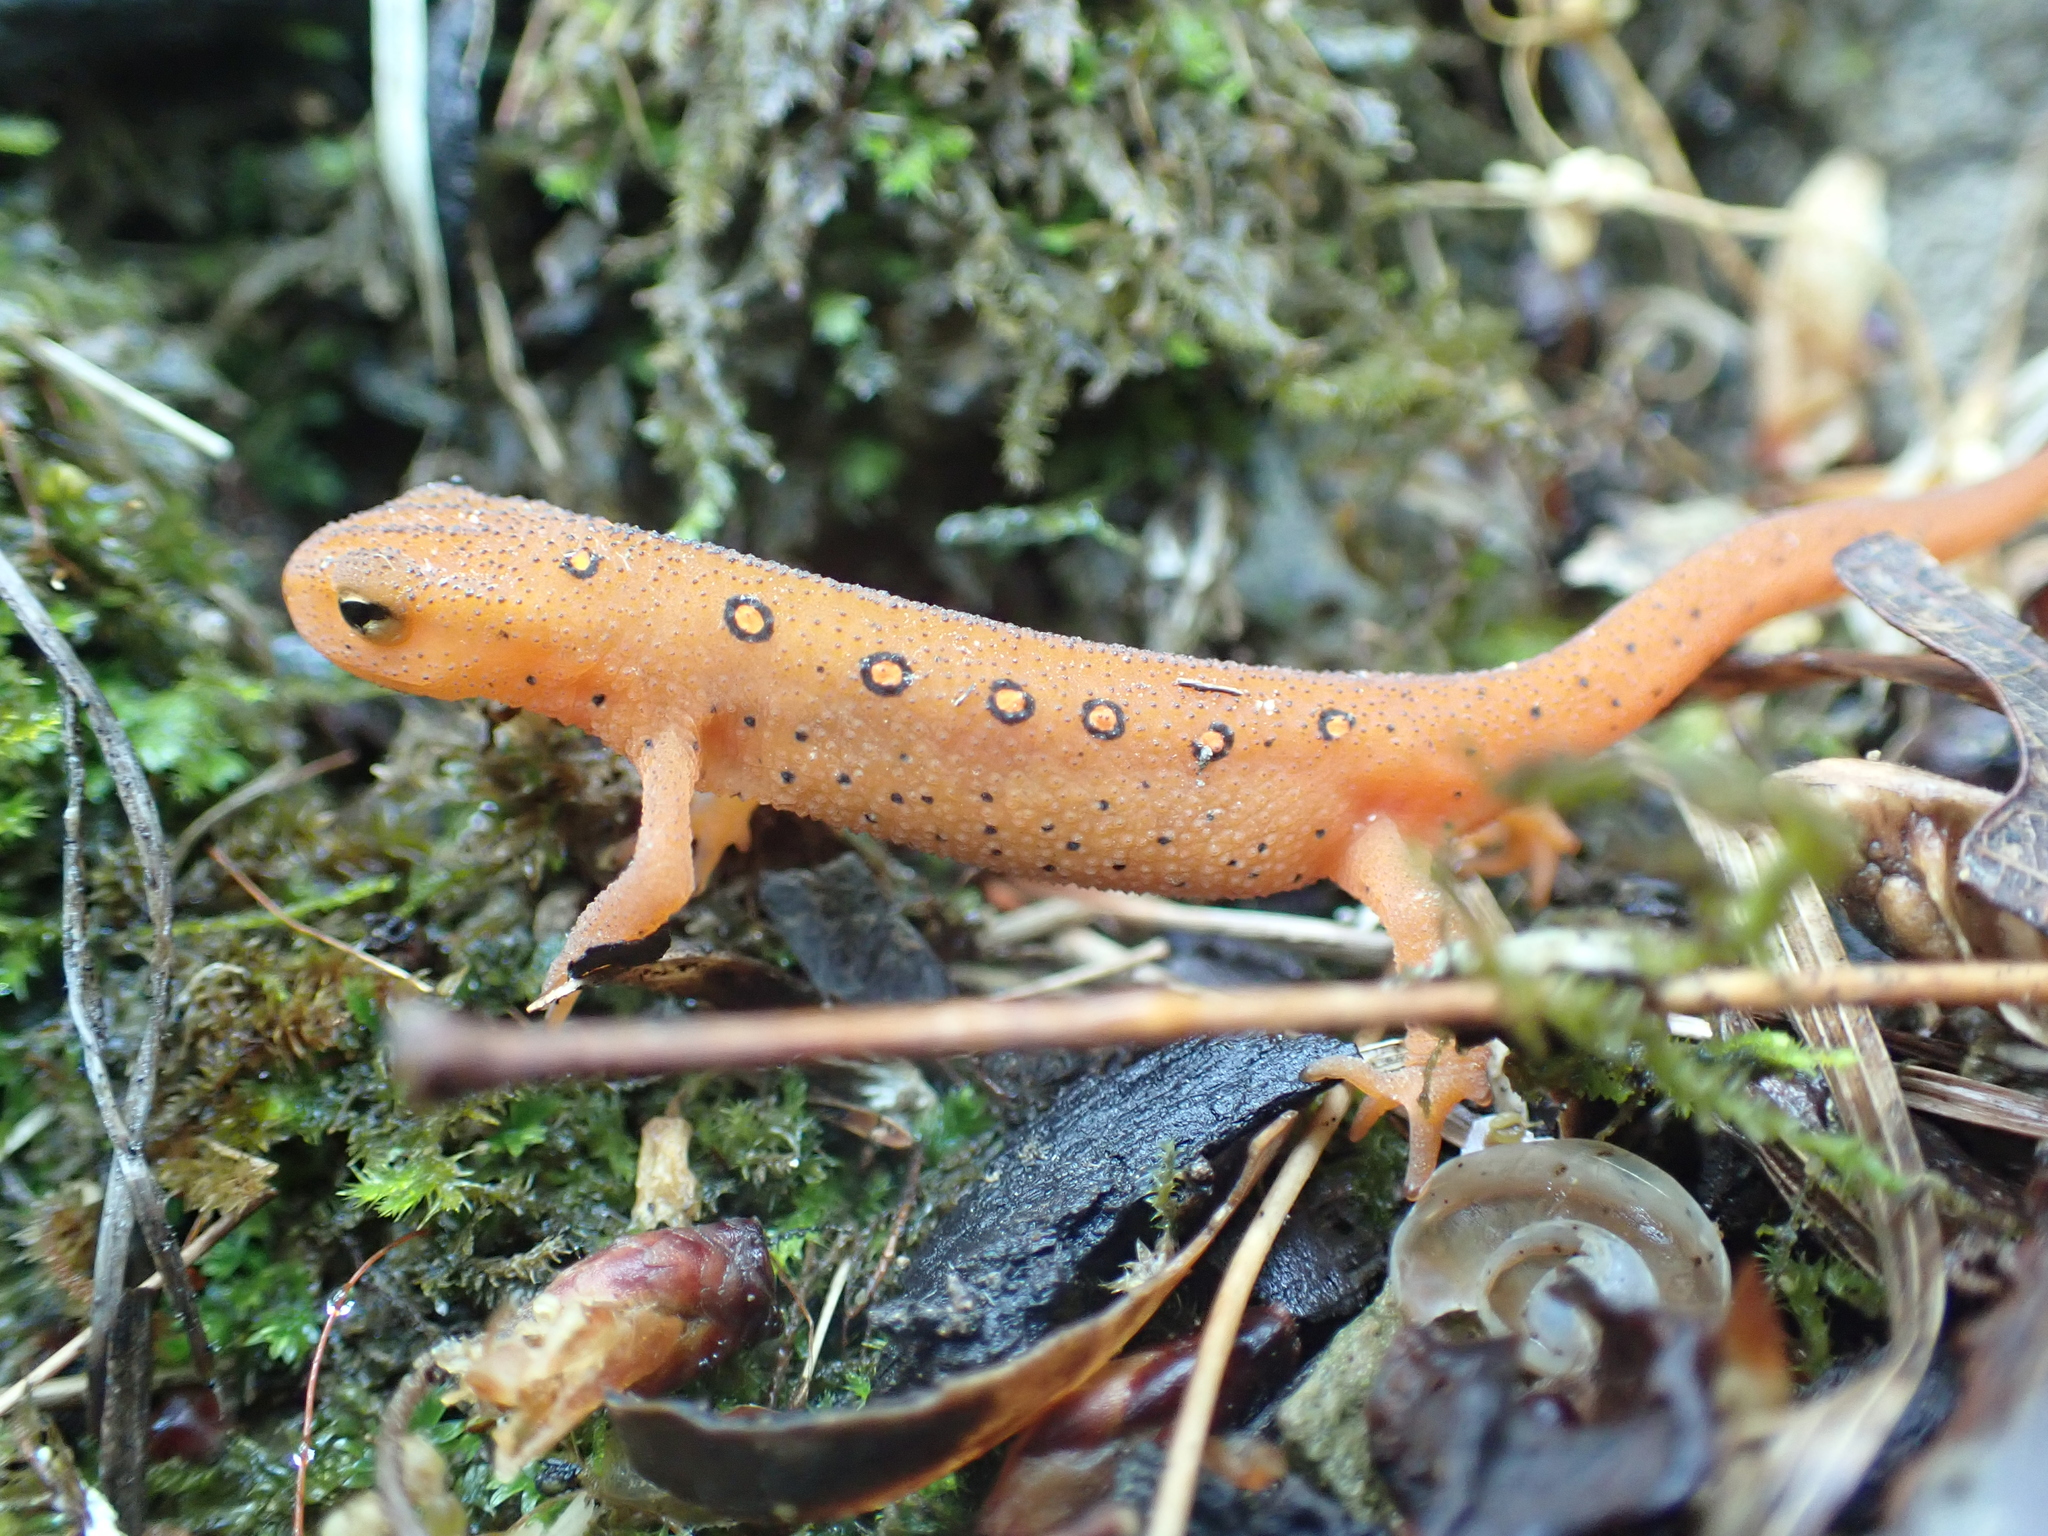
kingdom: Animalia
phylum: Chordata
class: Amphibia
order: Caudata
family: Salamandridae
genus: Notophthalmus
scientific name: Notophthalmus viridescens
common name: Eastern newt
